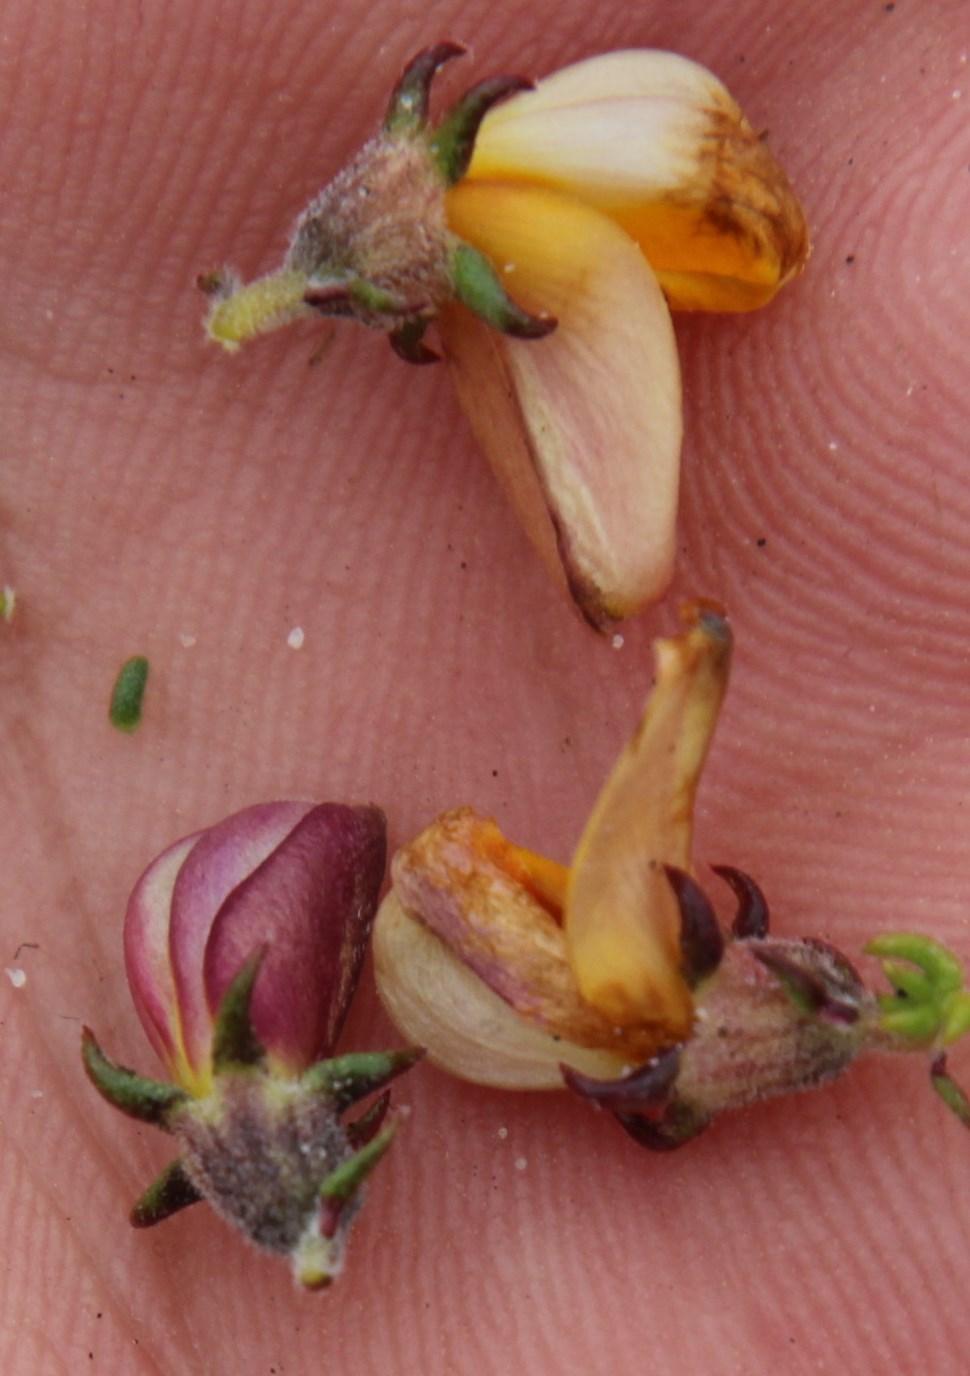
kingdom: Plantae
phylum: Tracheophyta
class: Magnoliopsida
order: Fabales
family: Fabaceae
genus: Aspalathus
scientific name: Aspalathus retroflexa
